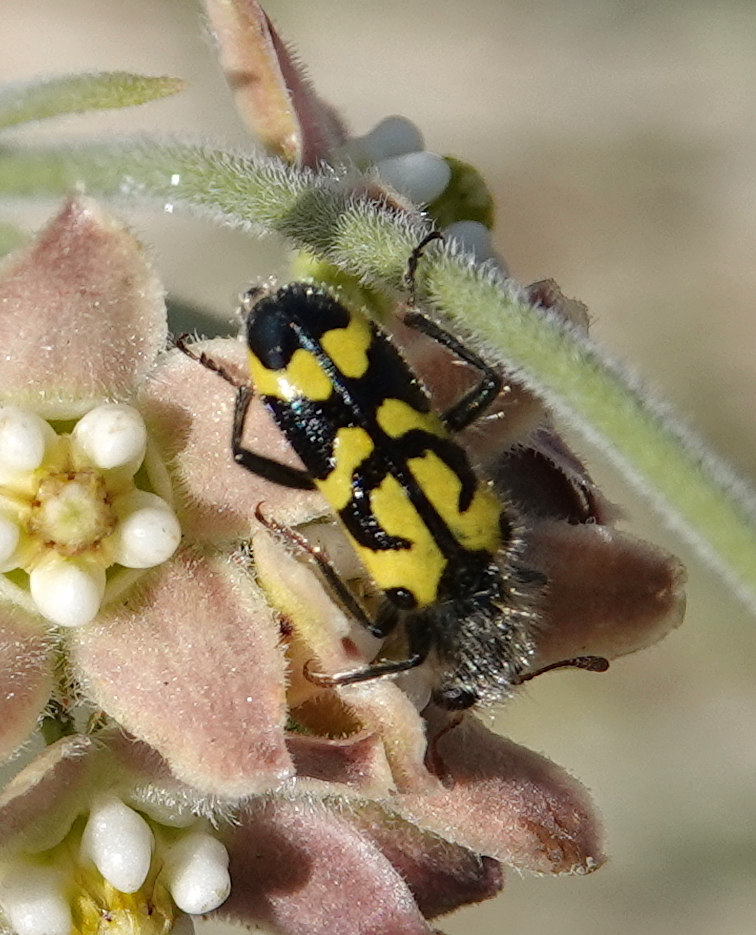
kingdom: Animalia
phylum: Arthropoda
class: Insecta
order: Coleoptera
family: Cleridae
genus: Trichodes
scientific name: Trichodes ornatus
